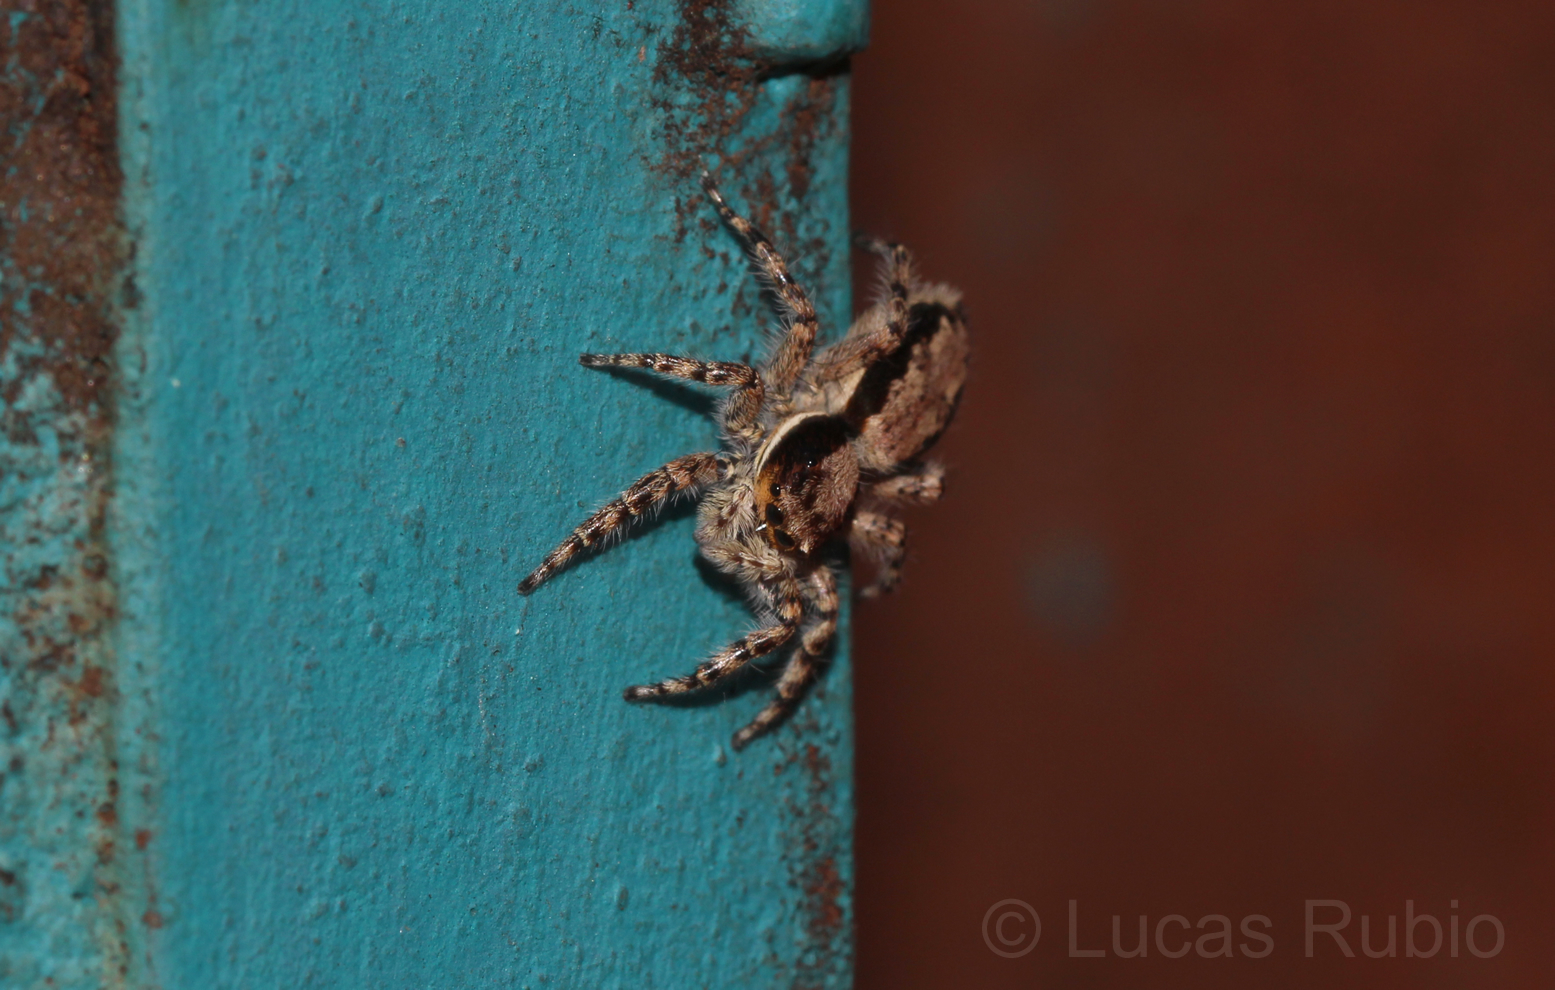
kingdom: Animalia
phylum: Arthropoda
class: Arachnida
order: Araneae
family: Salticidae
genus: Menemerus
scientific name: Menemerus bivittatus
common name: Gray wall jumper
